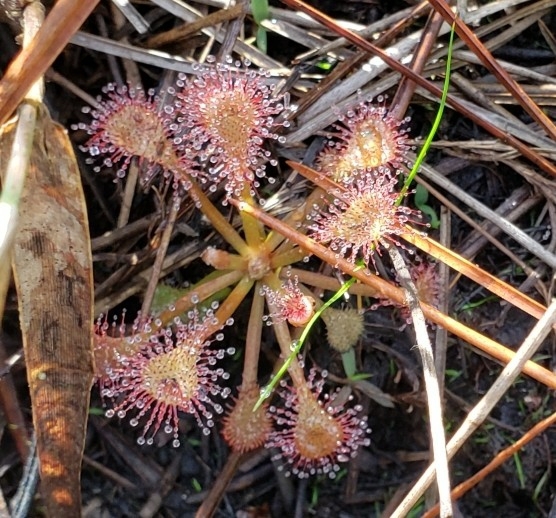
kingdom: Plantae
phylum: Tracheophyta
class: Magnoliopsida
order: Caryophyllales
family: Droseraceae
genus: Drosera
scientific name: Drosera capillaris
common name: Pink sundew
